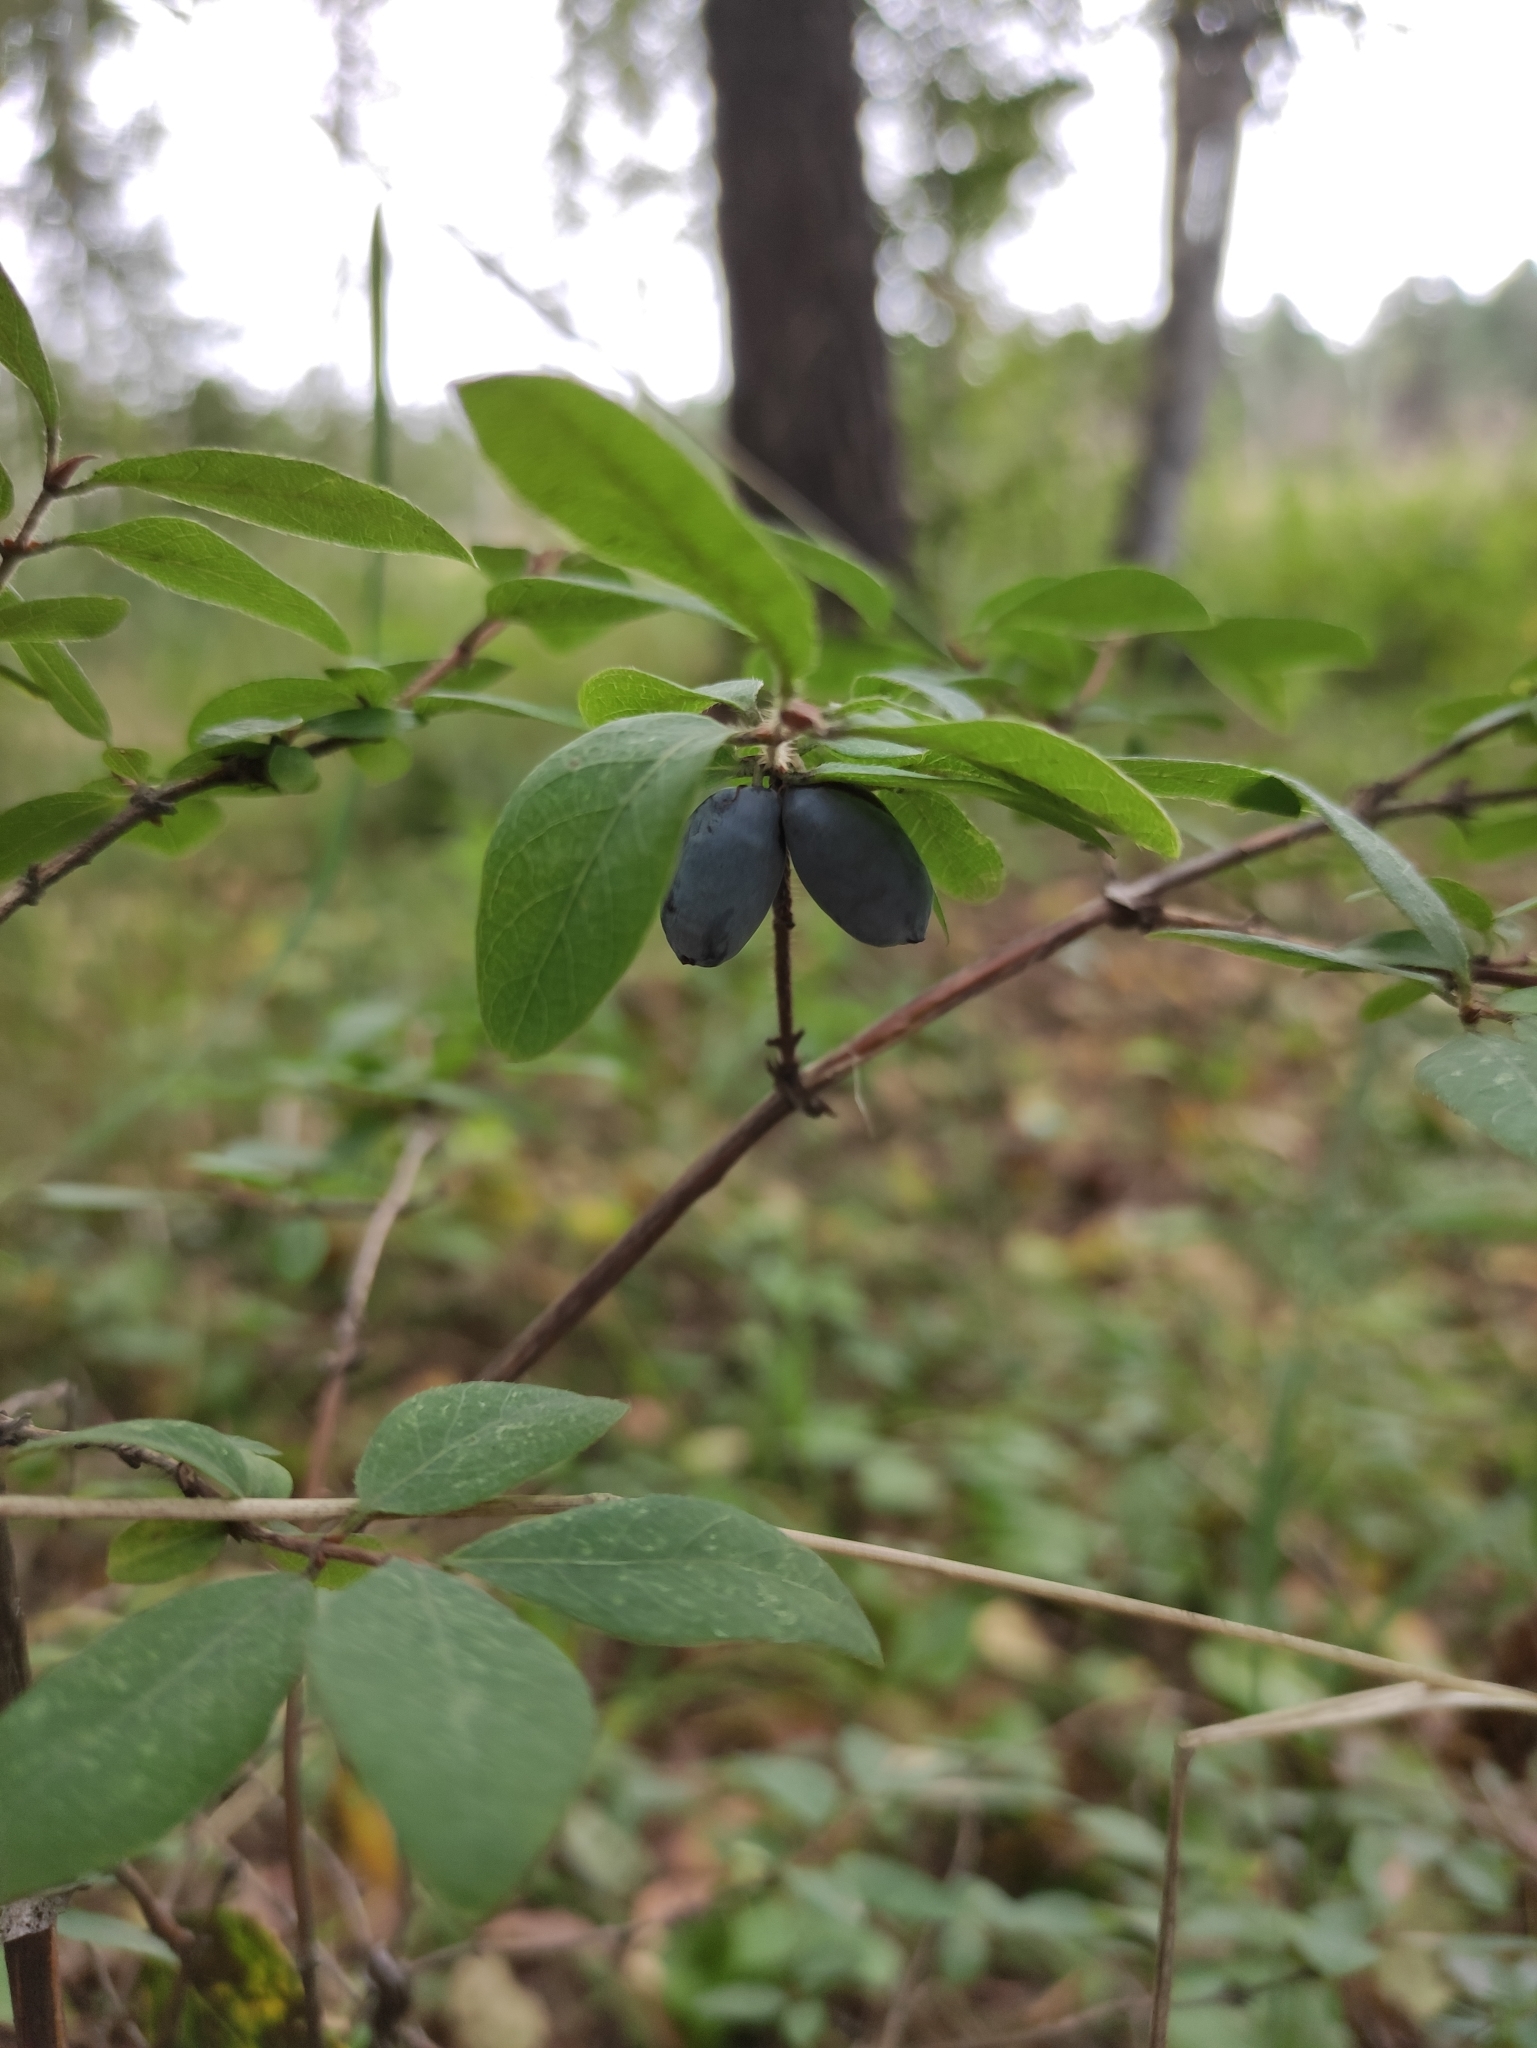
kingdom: Plantae
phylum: Tracheophyta
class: Magnoliopsida
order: Dipsacales
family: Caprifoliaceae
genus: Lonicera
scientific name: Lonicera caerulea
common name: Blue honeysuckle
